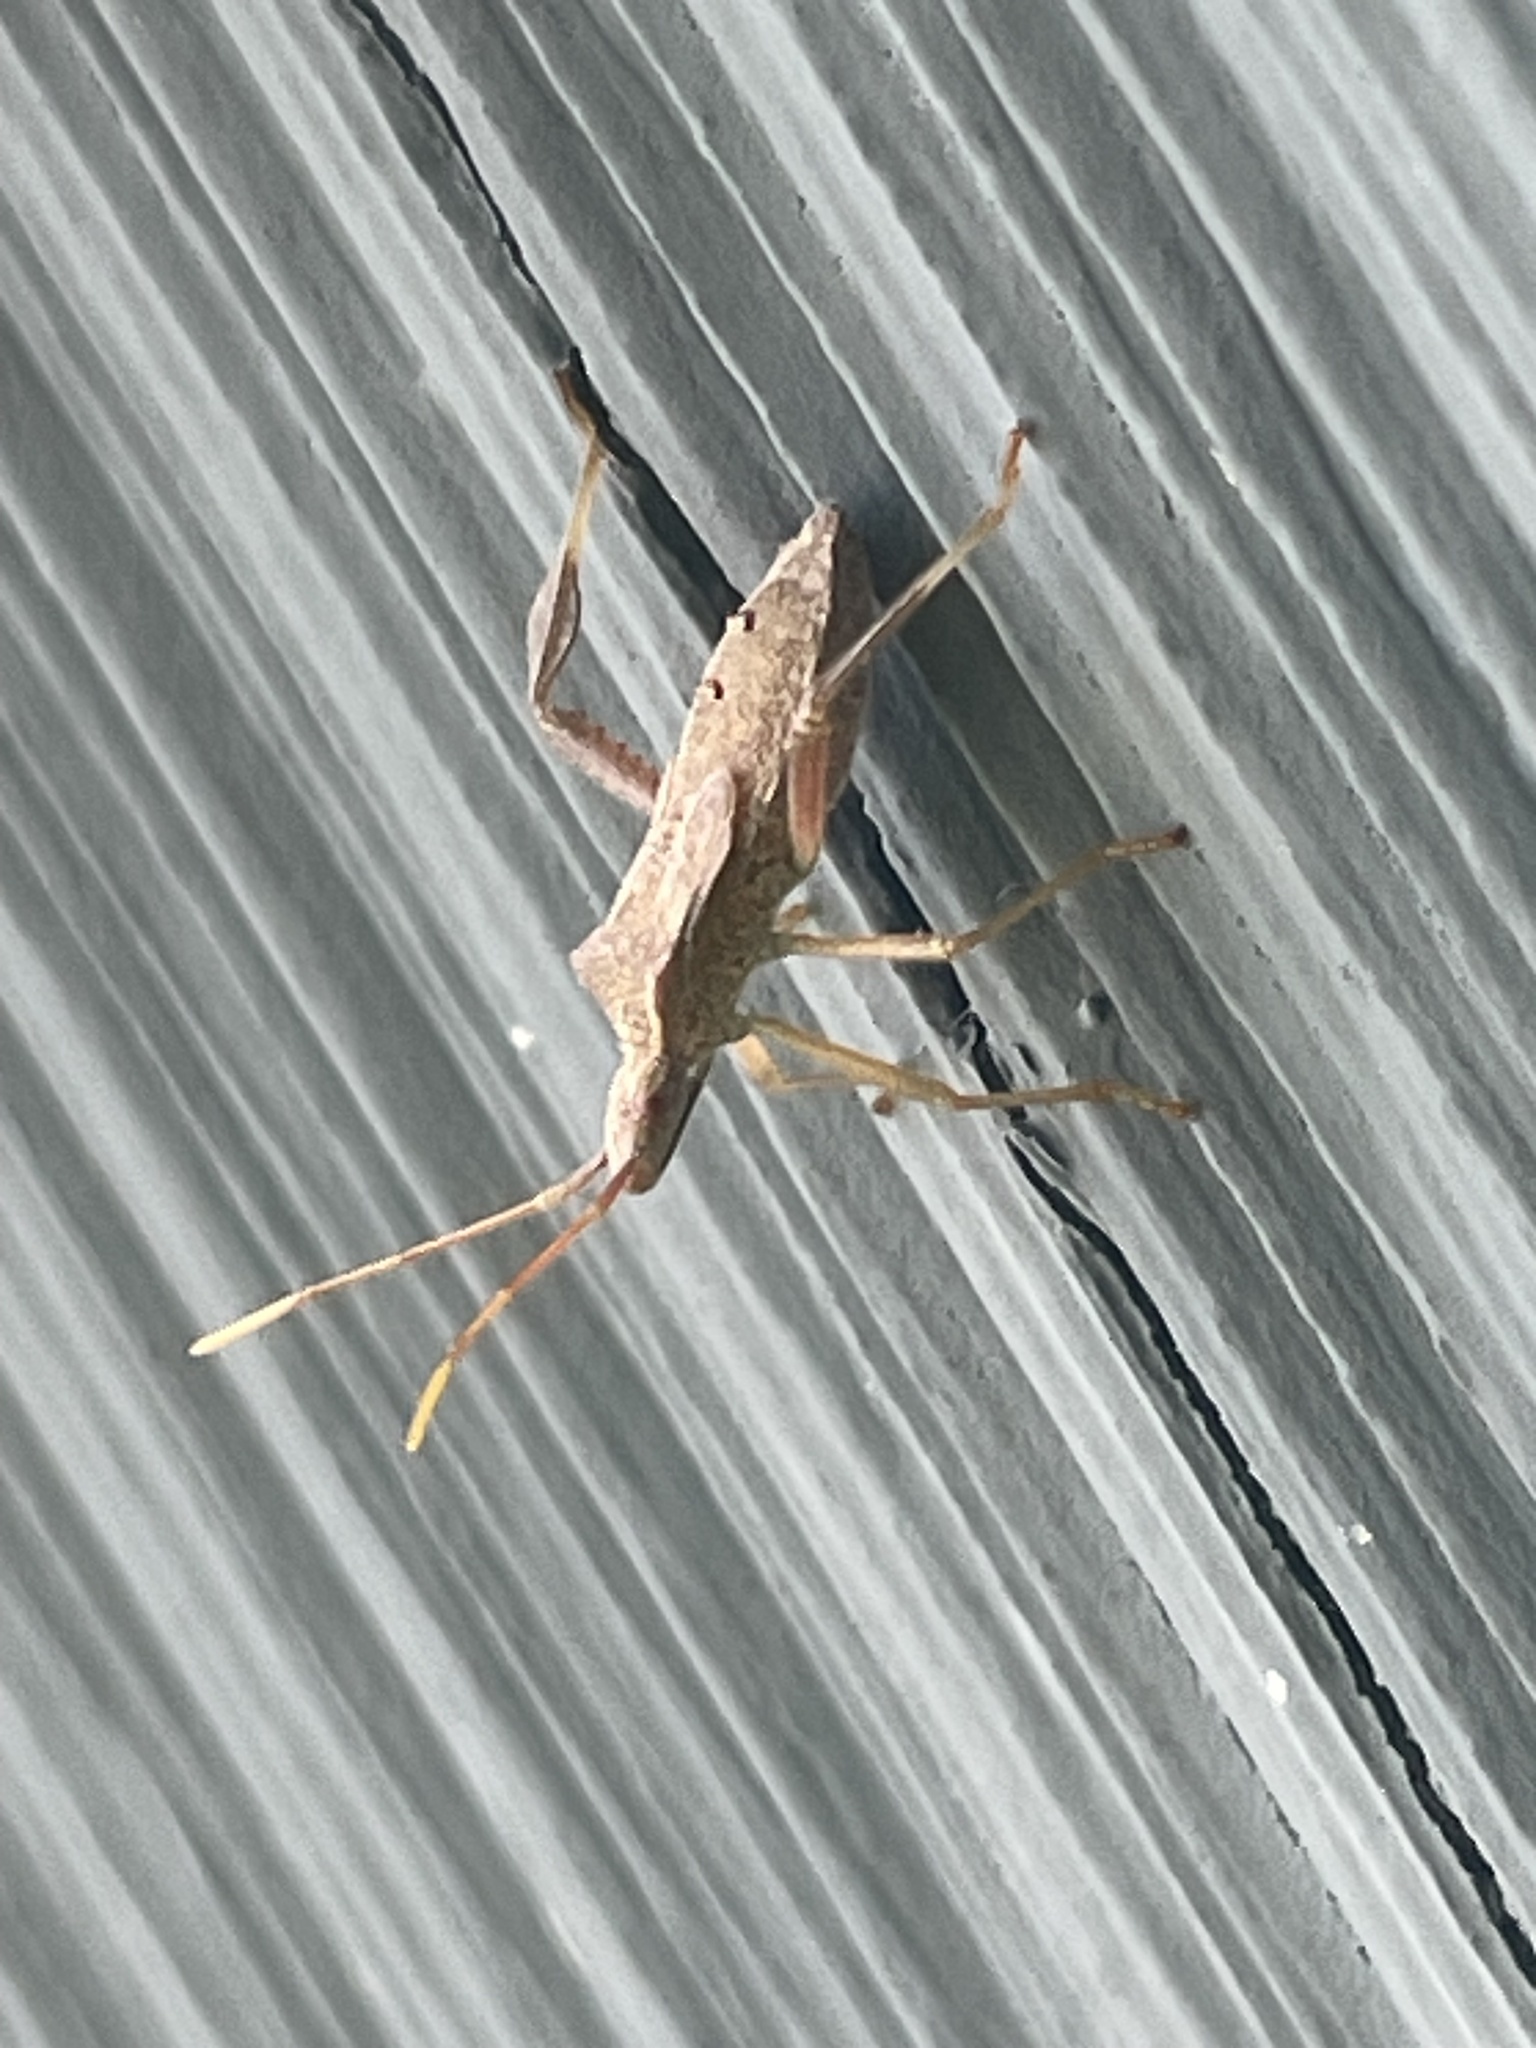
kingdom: Animalia
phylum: Arthropoda
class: Insecta
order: Hemiptera
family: Coreidae
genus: Leptoglossus
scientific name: Leptoglossus fulvicornis
